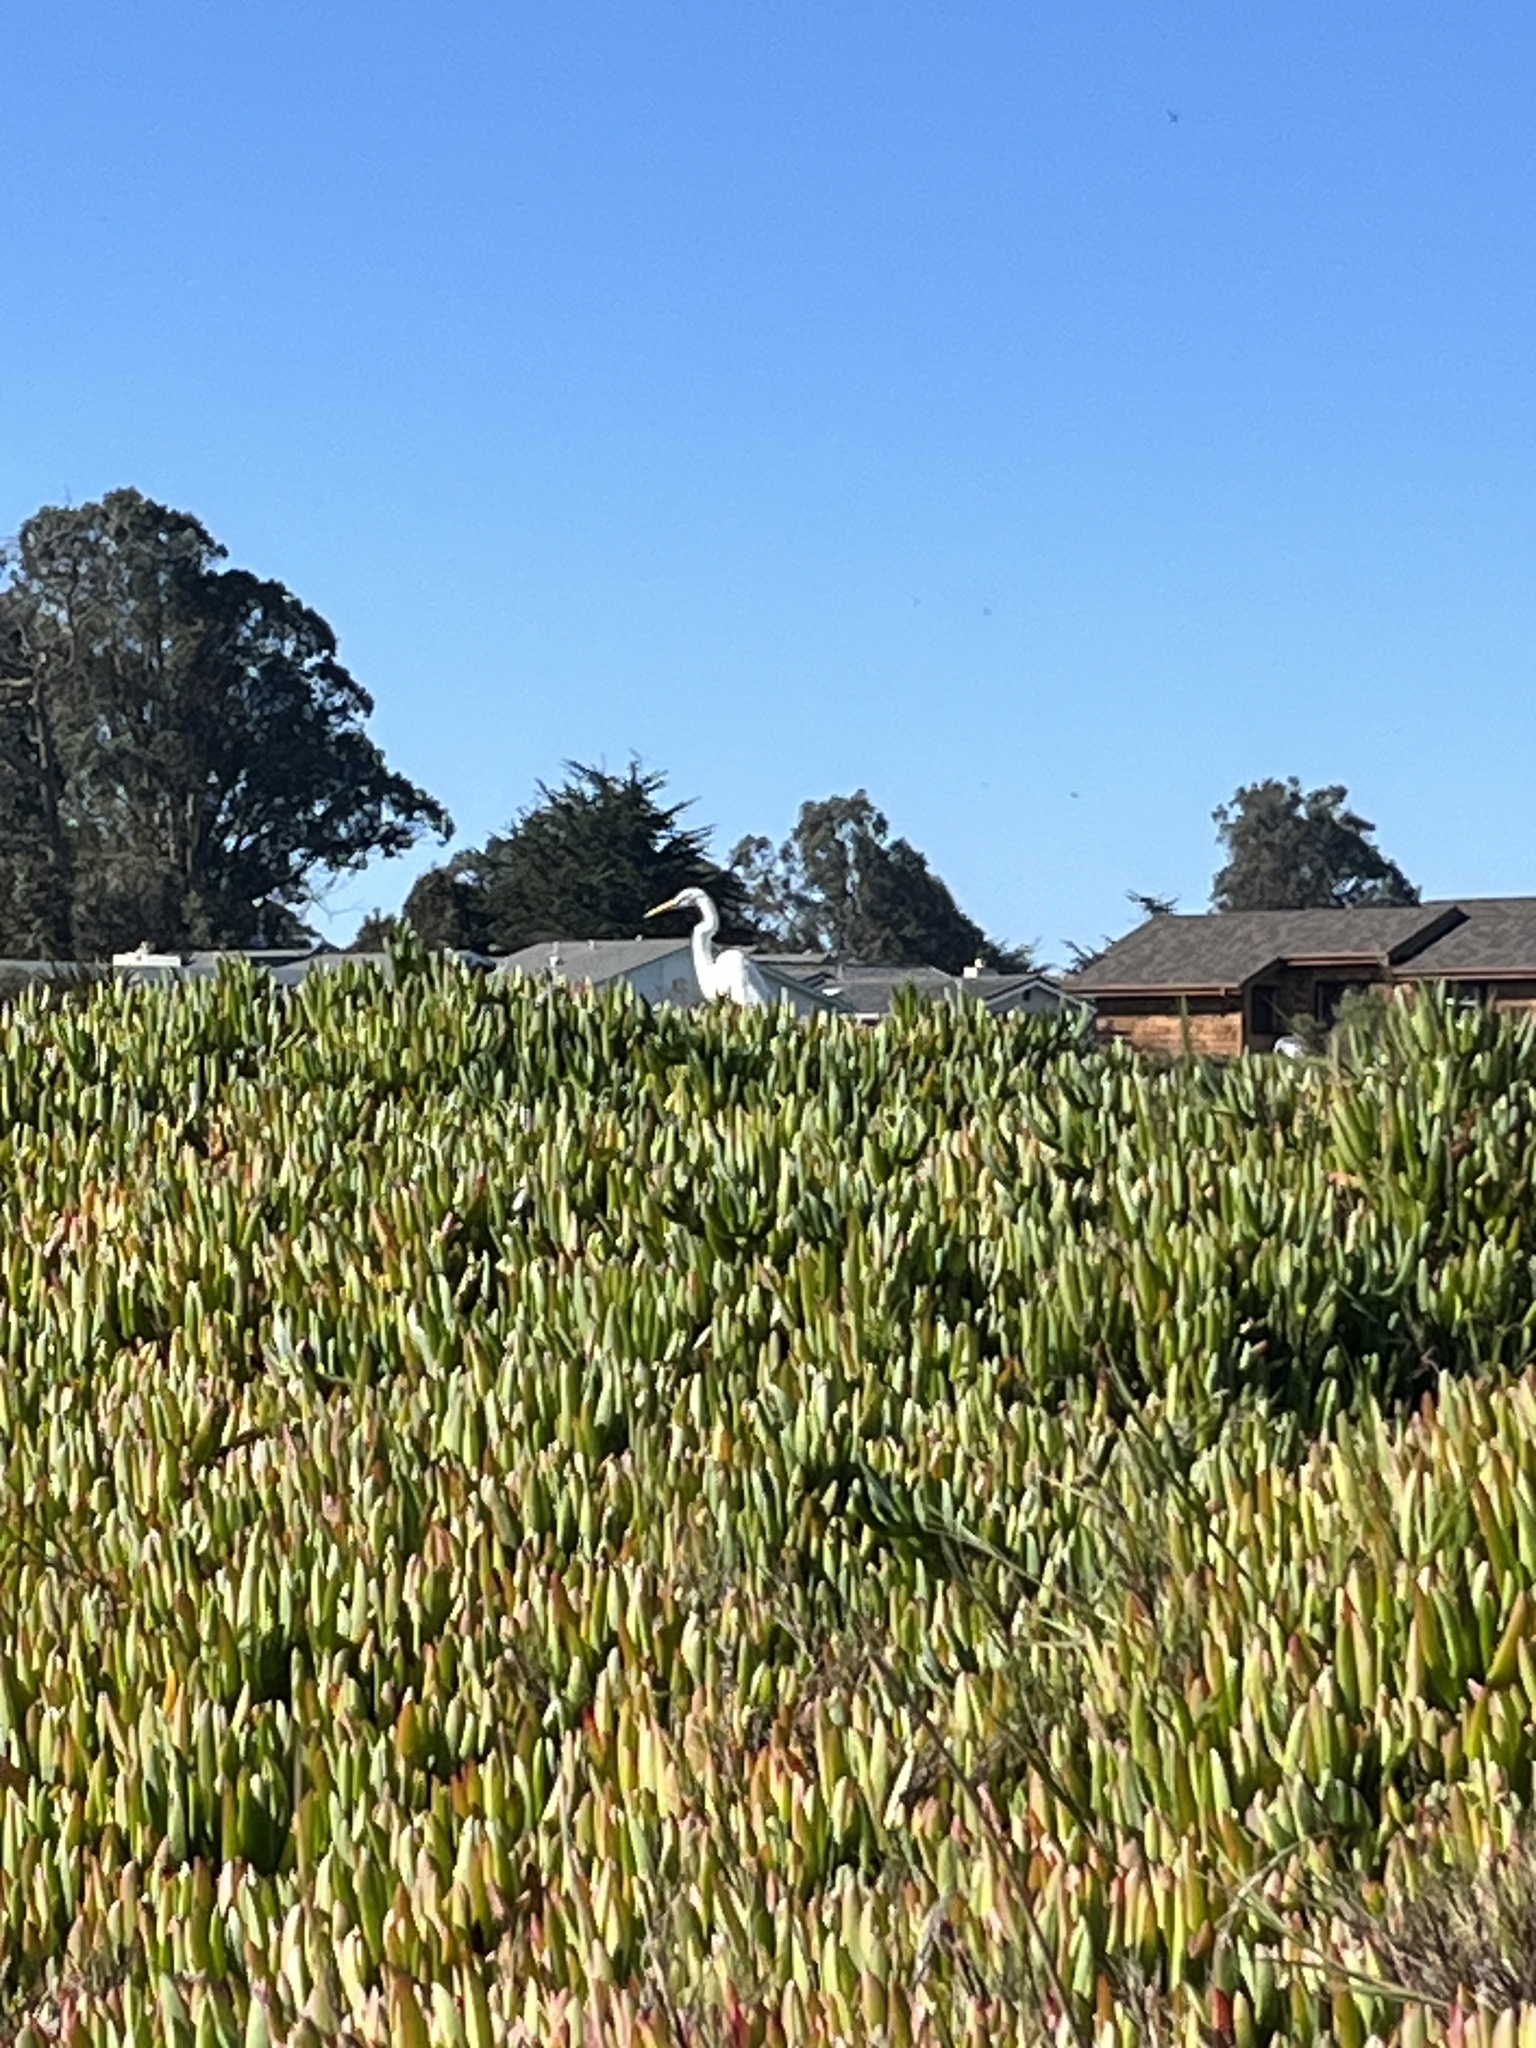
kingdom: Animalia
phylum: Chordata
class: Aves
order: Pelecaniformes
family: Ardeidae
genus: Ardea
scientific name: Ardea alba
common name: Great egret
